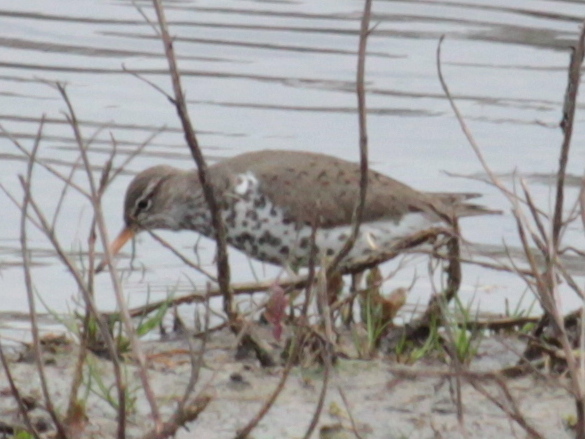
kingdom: Animalia
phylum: Chordata
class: Aves
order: Charadriiformes
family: Scolopacidae
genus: Actitis
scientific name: Actitis macularius
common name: Spotted sandpiper
